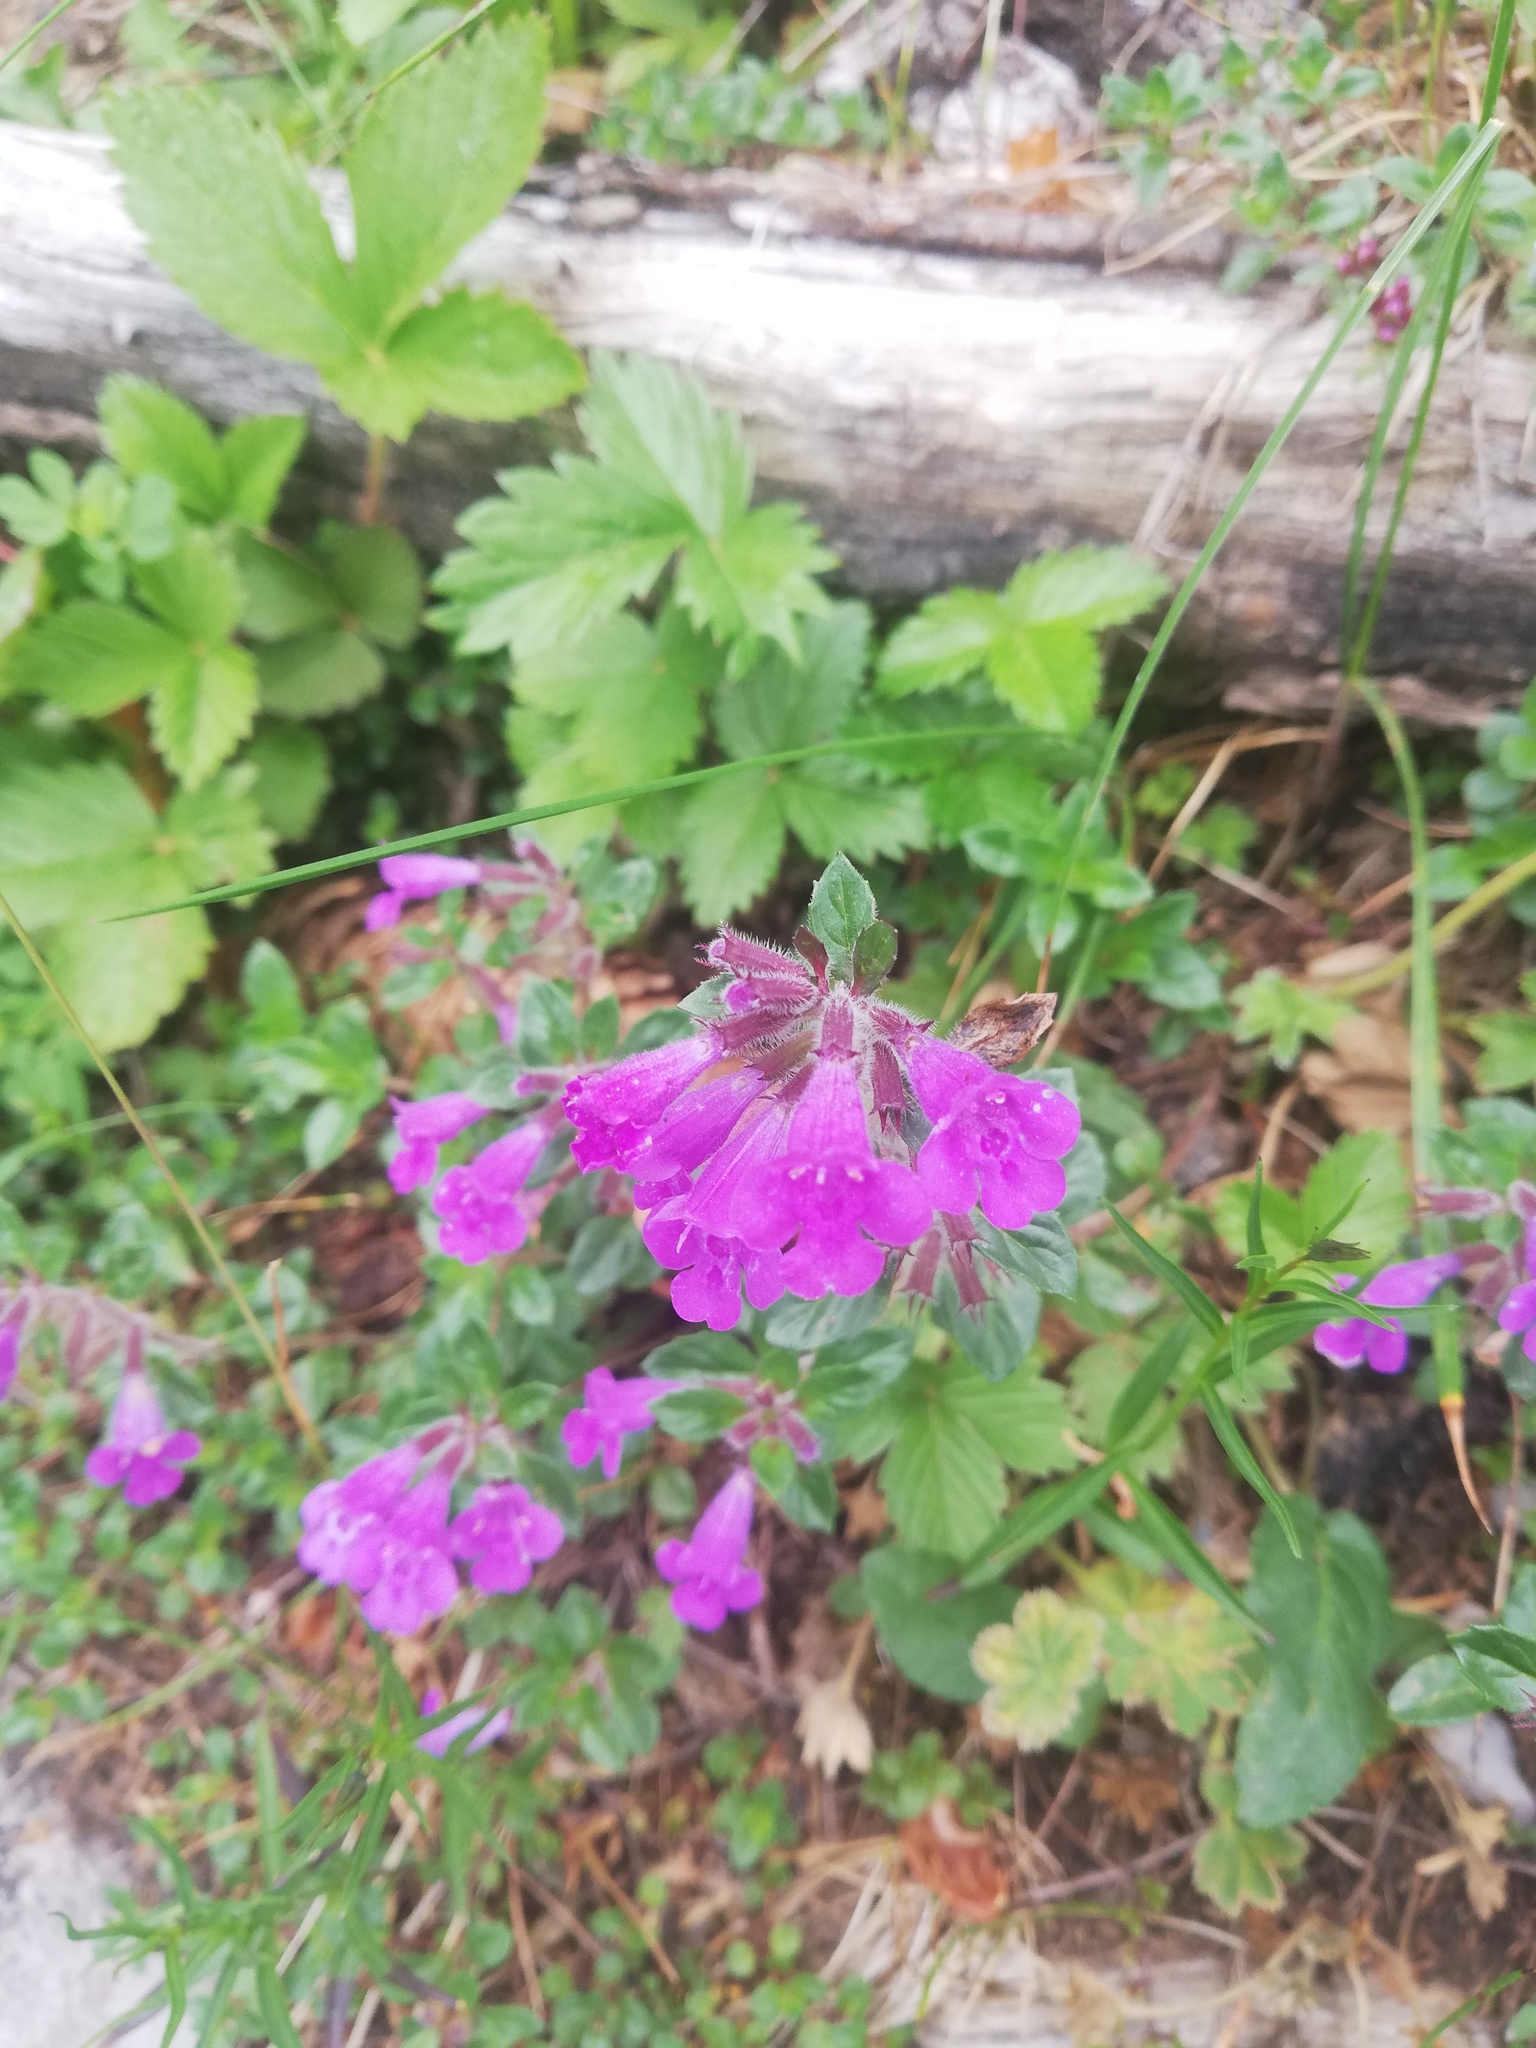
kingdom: Plantae
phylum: Tracheophyta
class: Magnoliopsida
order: Lamiales
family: Lamiaceae
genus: Clinopodium
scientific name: Clinopodium alpinum
